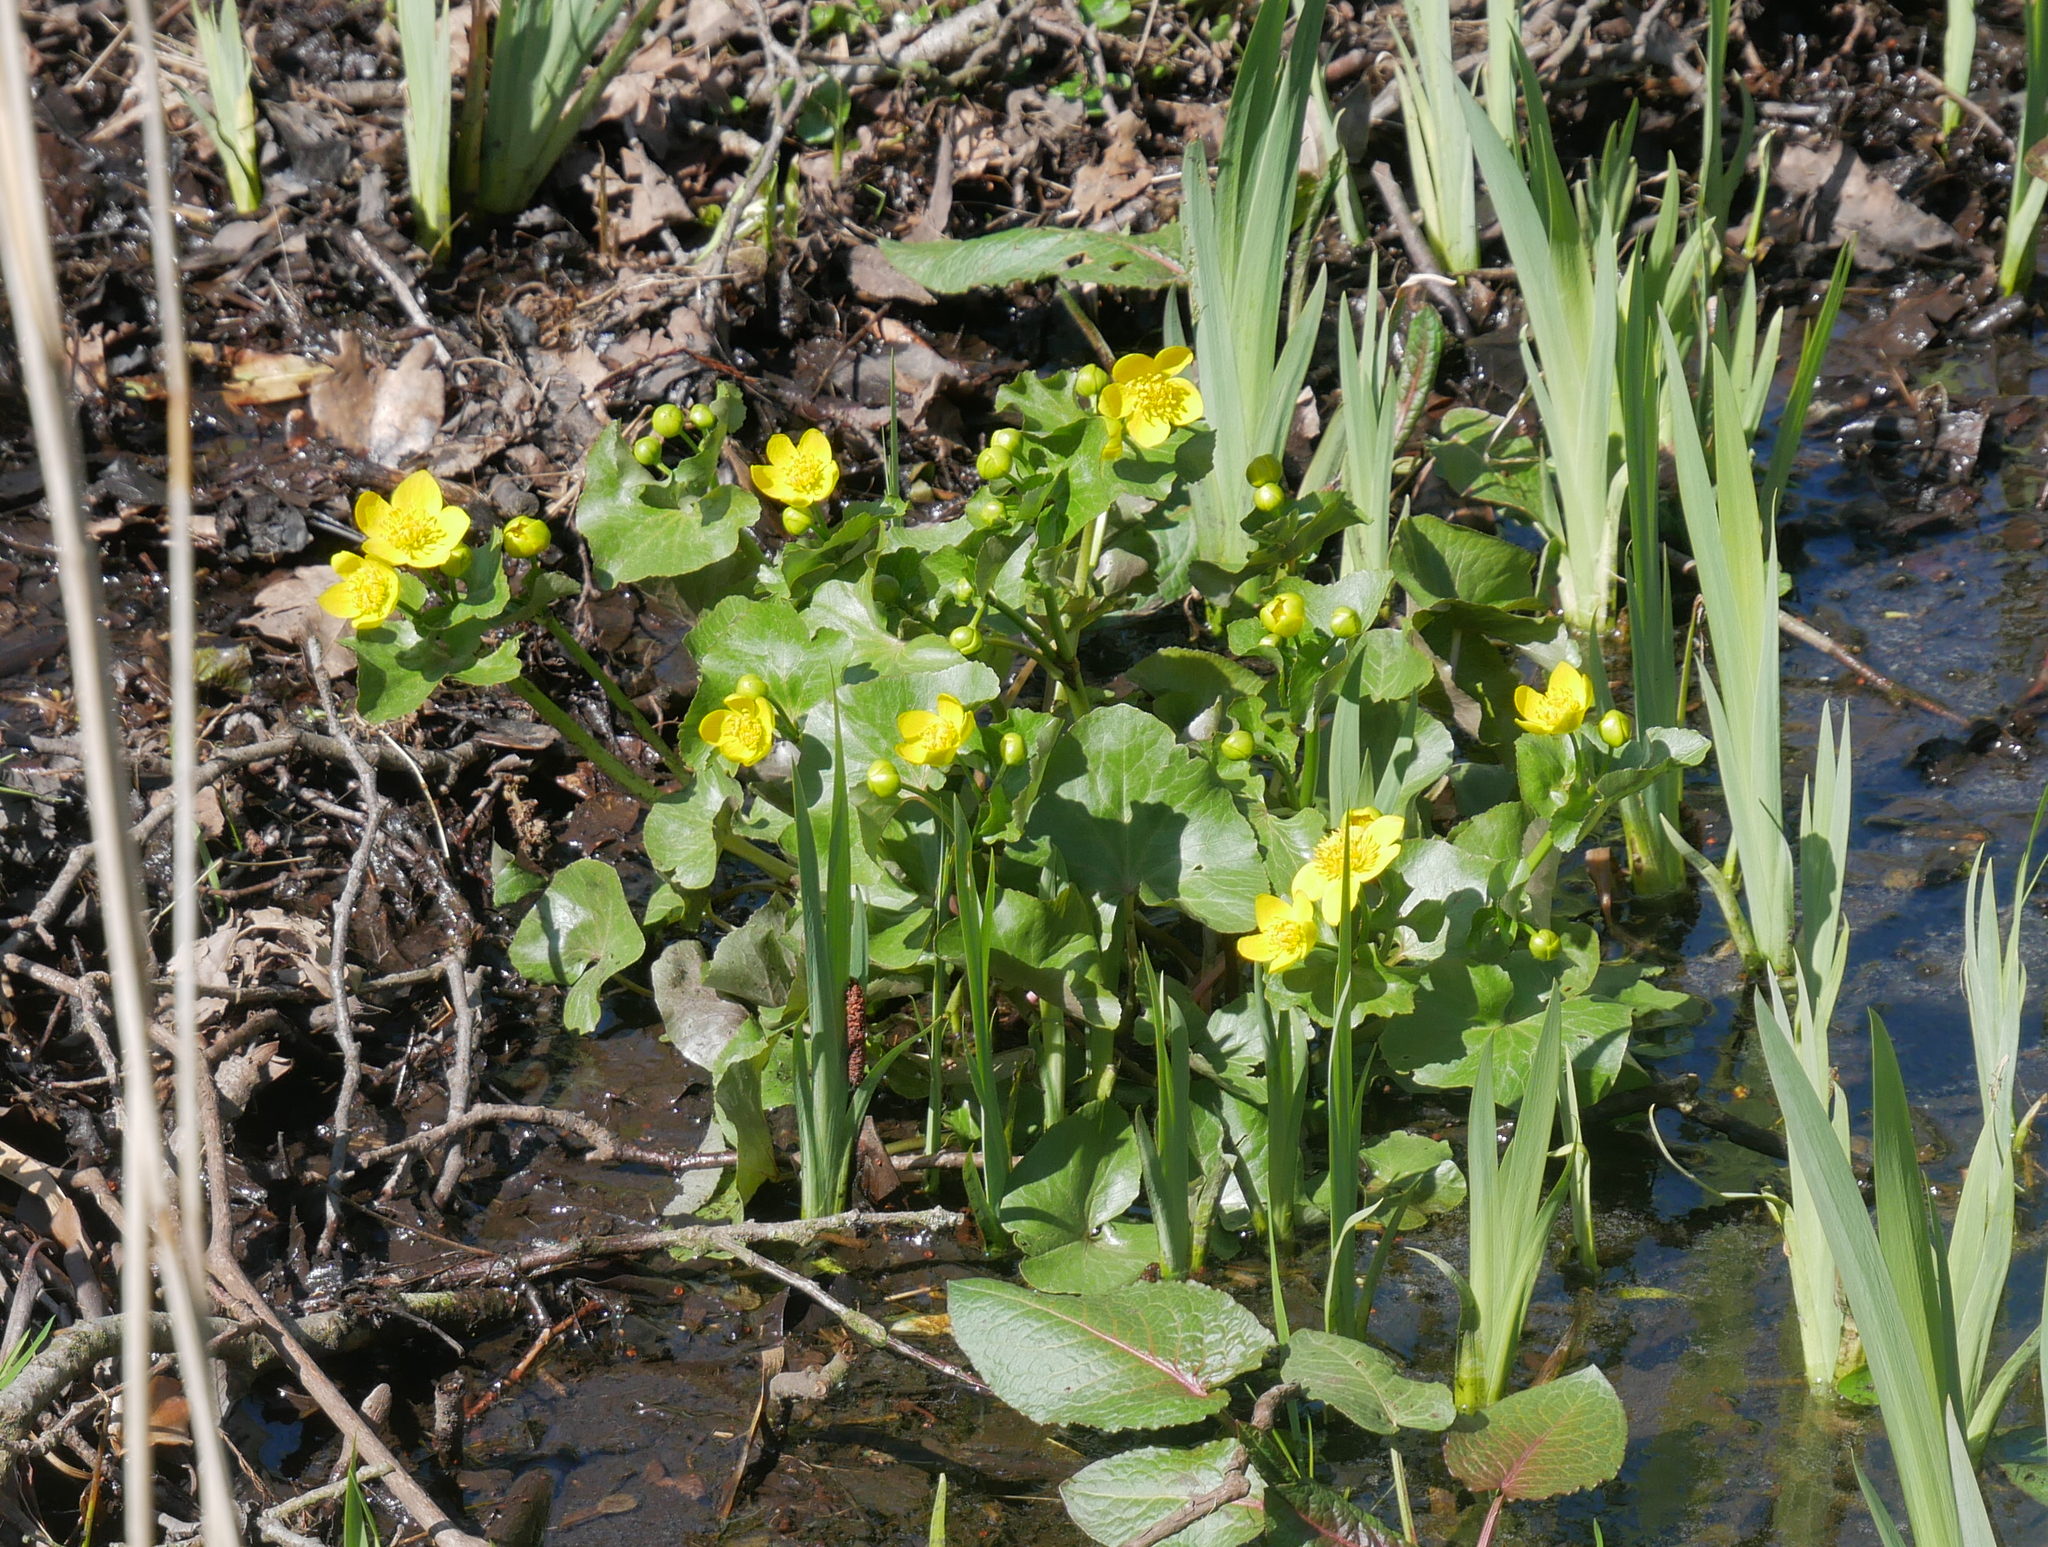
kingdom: Plantae
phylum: Tracheophyta
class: Magnoliopsida
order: Ranunculales
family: Ranunculaceae
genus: Caltha
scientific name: Caltha palustris
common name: Marsh marigold
